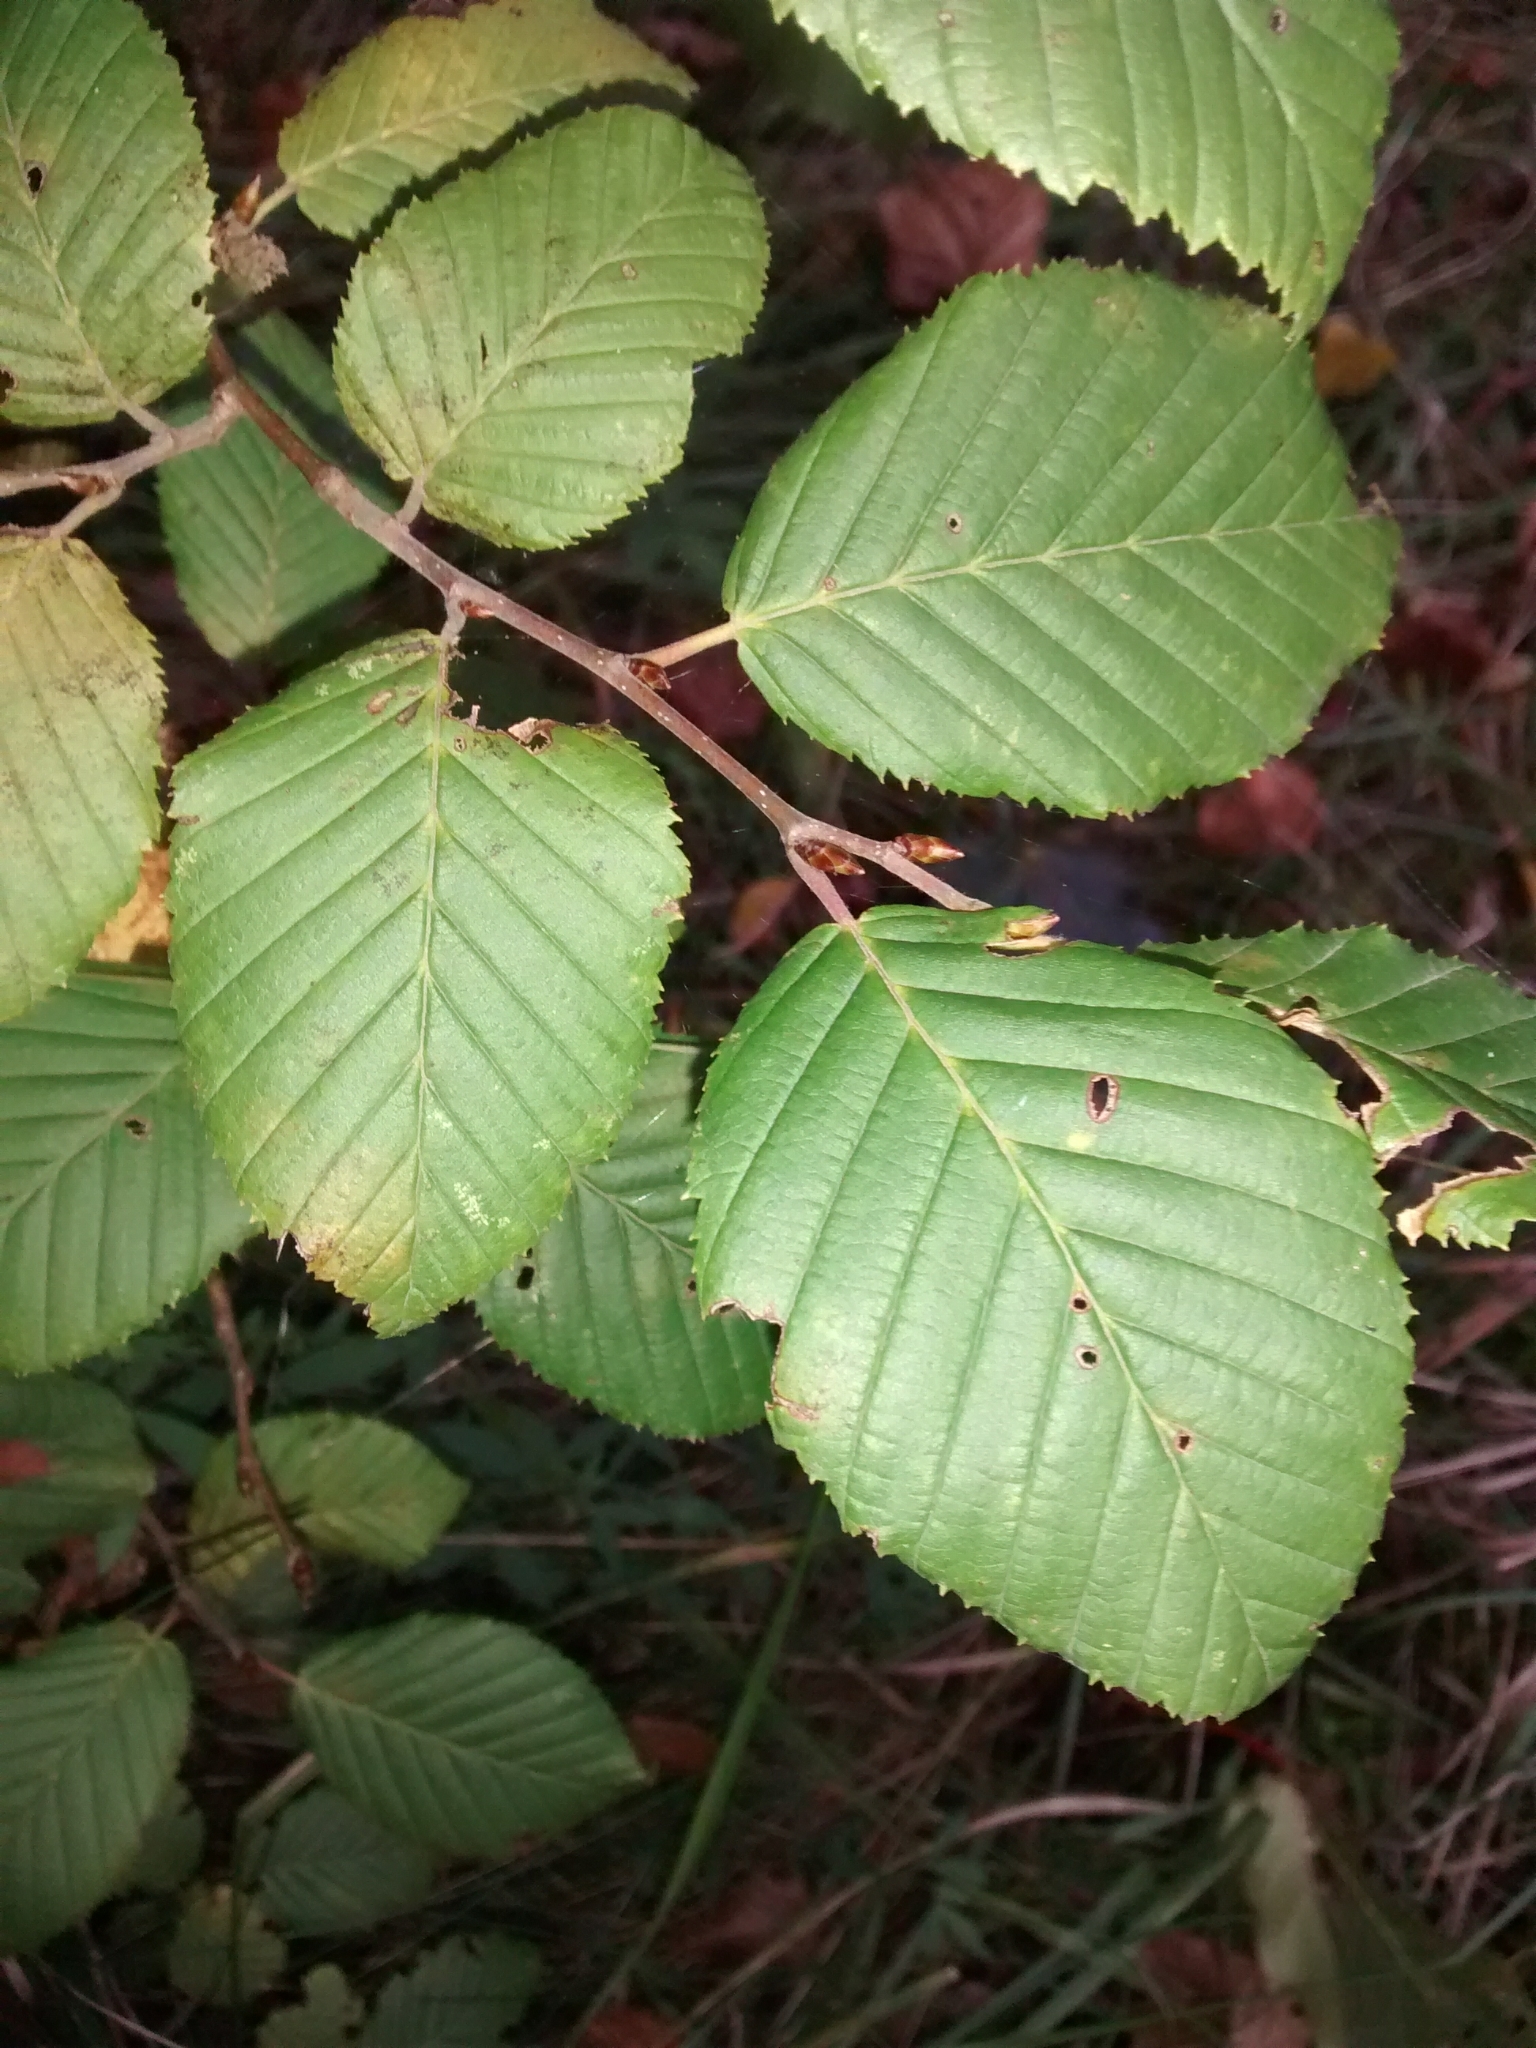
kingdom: Plantae
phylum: Tracheophyta
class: Magnoliopsida
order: Fagales
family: Betulaceae
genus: Carpinus
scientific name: Carpinus betulus
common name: Hornbeam
